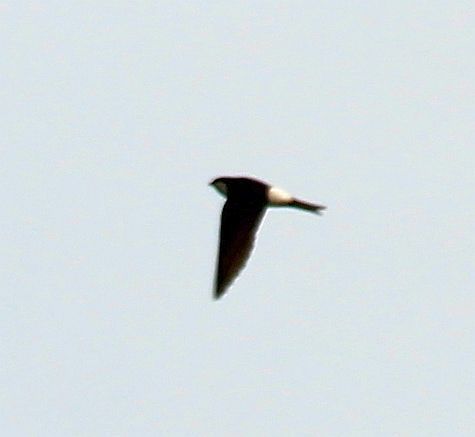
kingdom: Animalia
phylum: Chordata
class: Aves
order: Passeriformes
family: Hirundinidae
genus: Delichon
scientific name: Delichon urbicum
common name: Common house martin
